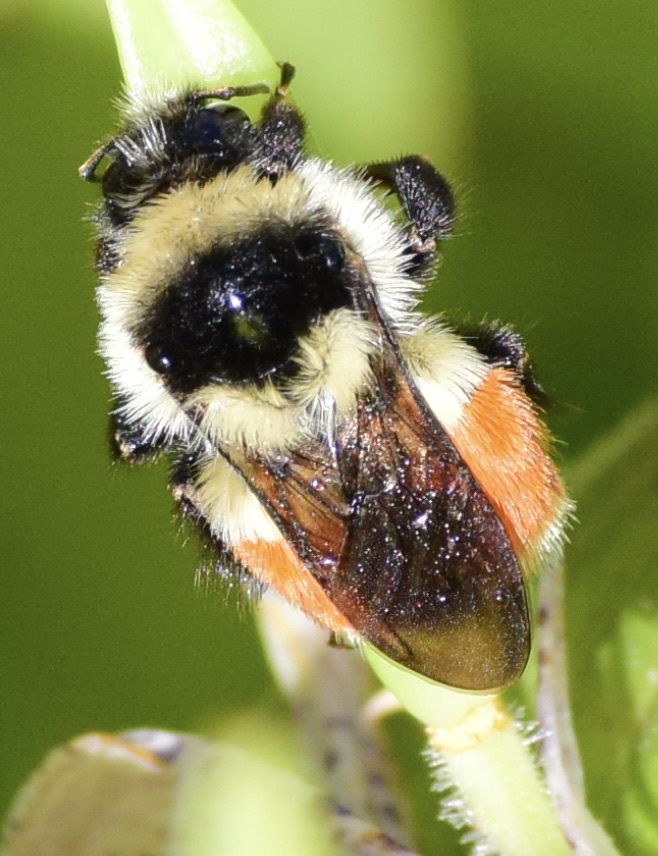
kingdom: Animalia
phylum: Arthropoda
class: Insecta
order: Hymenoptera
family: Apidae
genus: Bombus
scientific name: Bombus ternarius
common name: Tri-colored bumble bee
